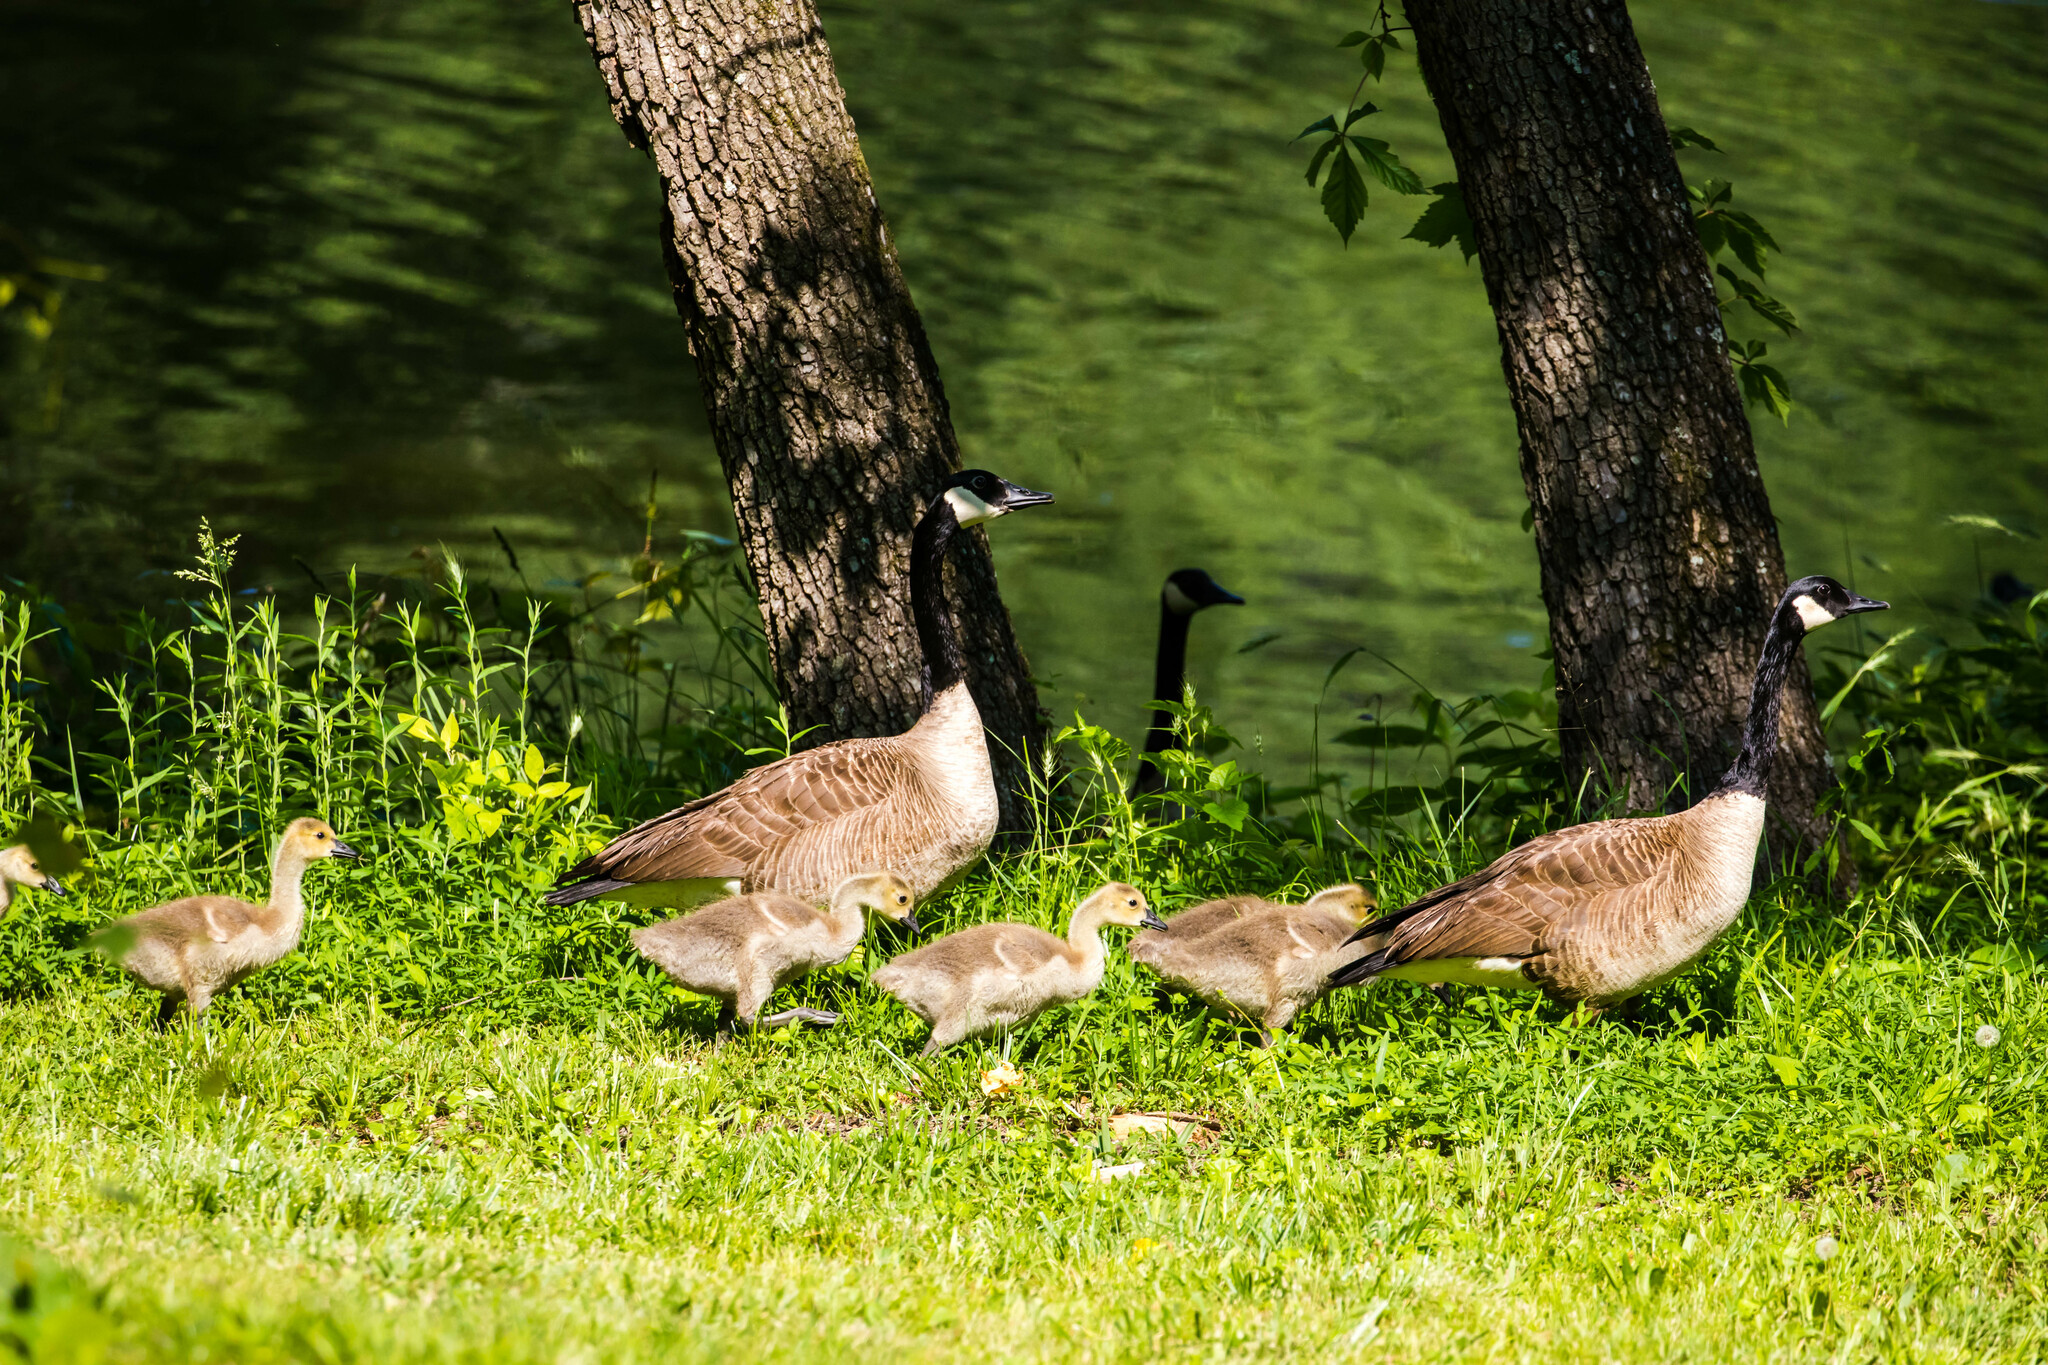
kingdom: Animalia
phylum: Chordata
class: Aves
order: Anseriformes
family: Anatidae
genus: Branta
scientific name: Branta canadensis
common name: Canada goose
